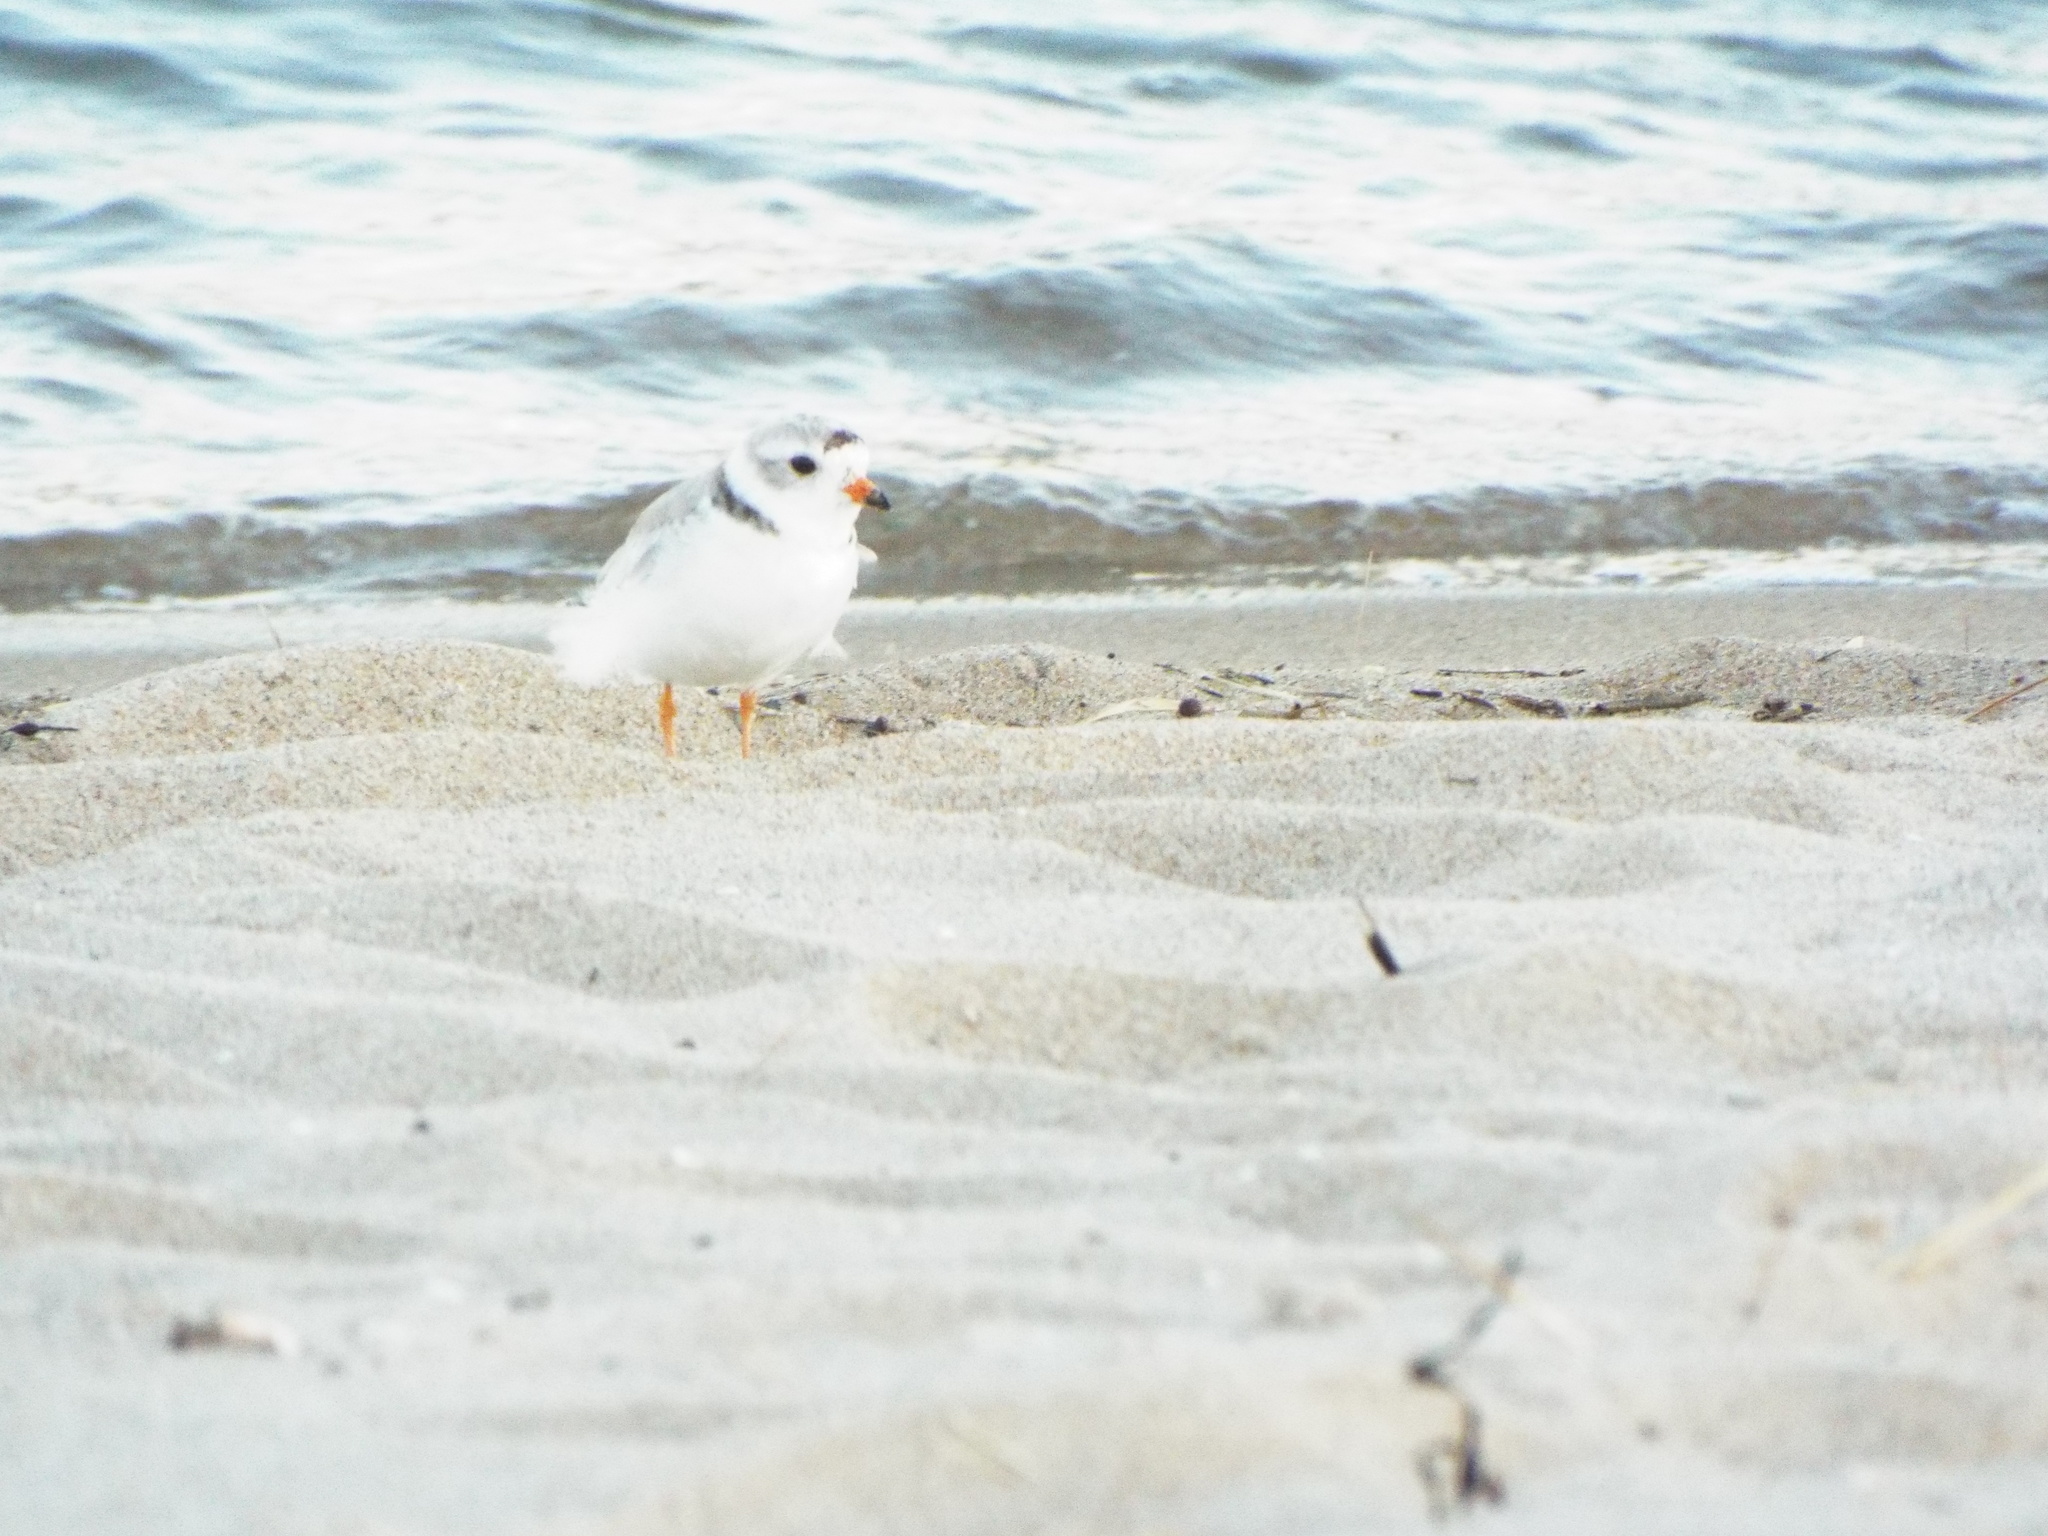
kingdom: Animalia
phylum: Chordata
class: Aves
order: Charadriiformes
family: Charadriidae
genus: Charadrius
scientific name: Charadrius melodus
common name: Piping plover
